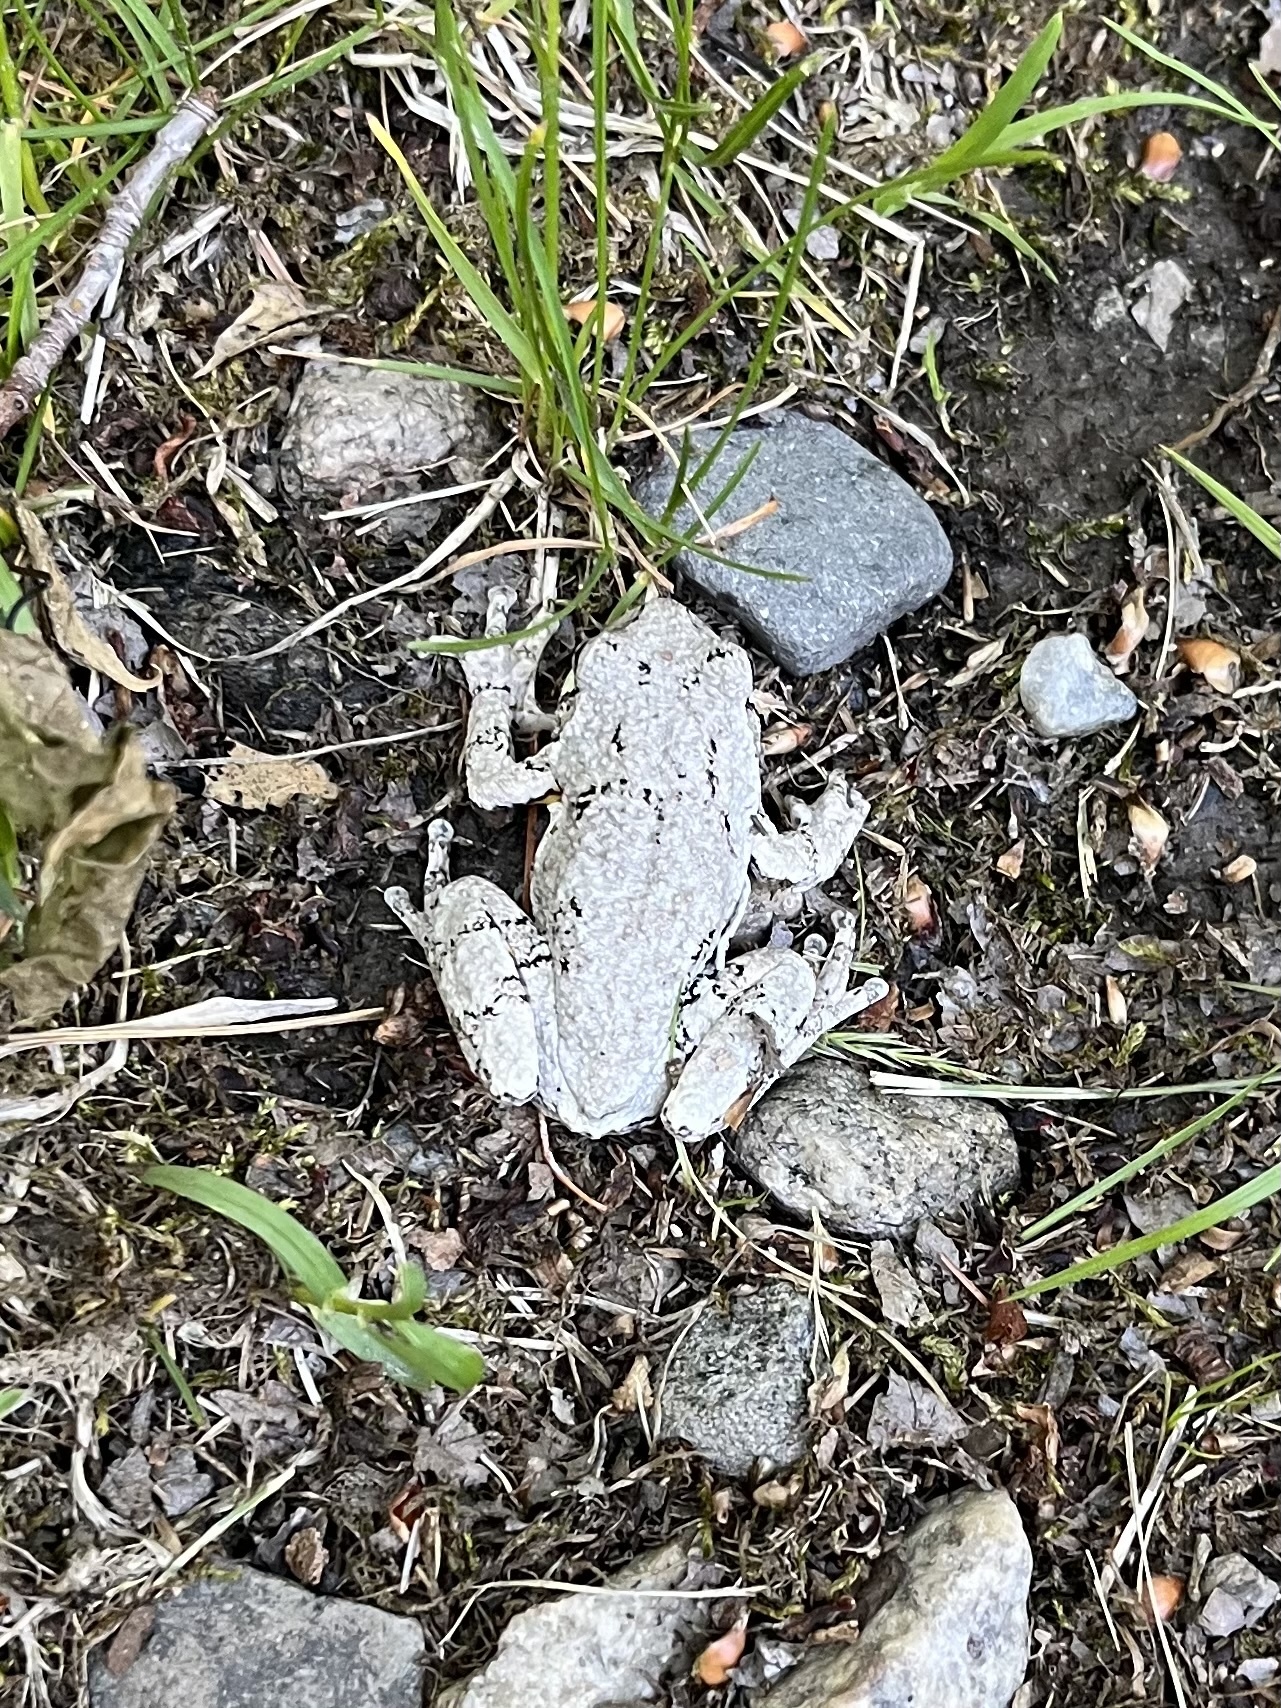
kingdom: Animalia
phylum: Chordata
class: Amphibia
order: Anura
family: Hylidae
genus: Dryophytes
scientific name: Dryophytes versicolor
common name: Gray treefrog
